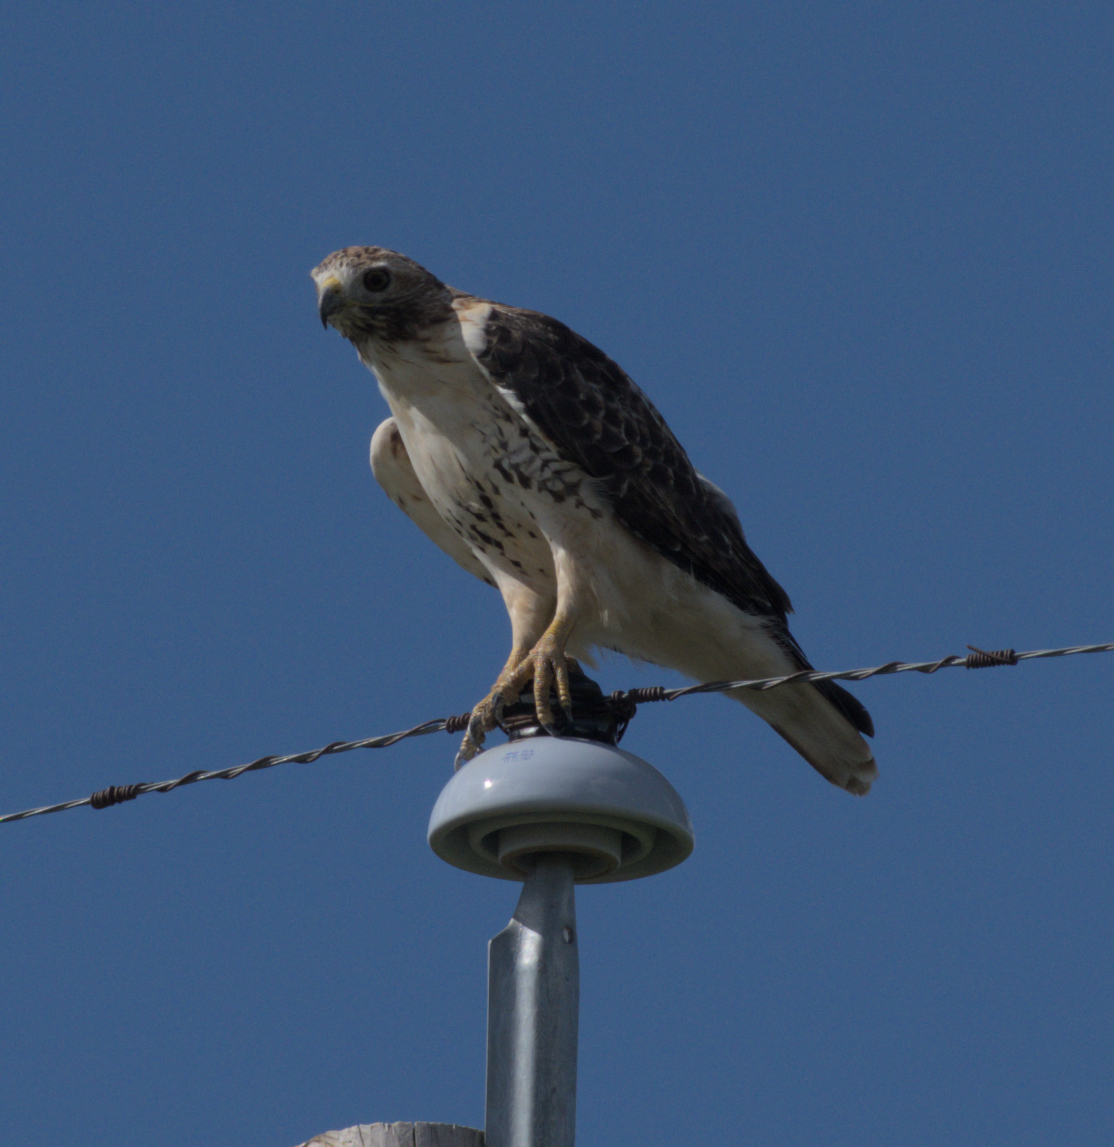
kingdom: Animalia
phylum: Chordata
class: Aves
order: Accipitriformes
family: Accipitridae
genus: Buteo
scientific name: Buteo jamaicensis
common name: Red-tailed hawk
